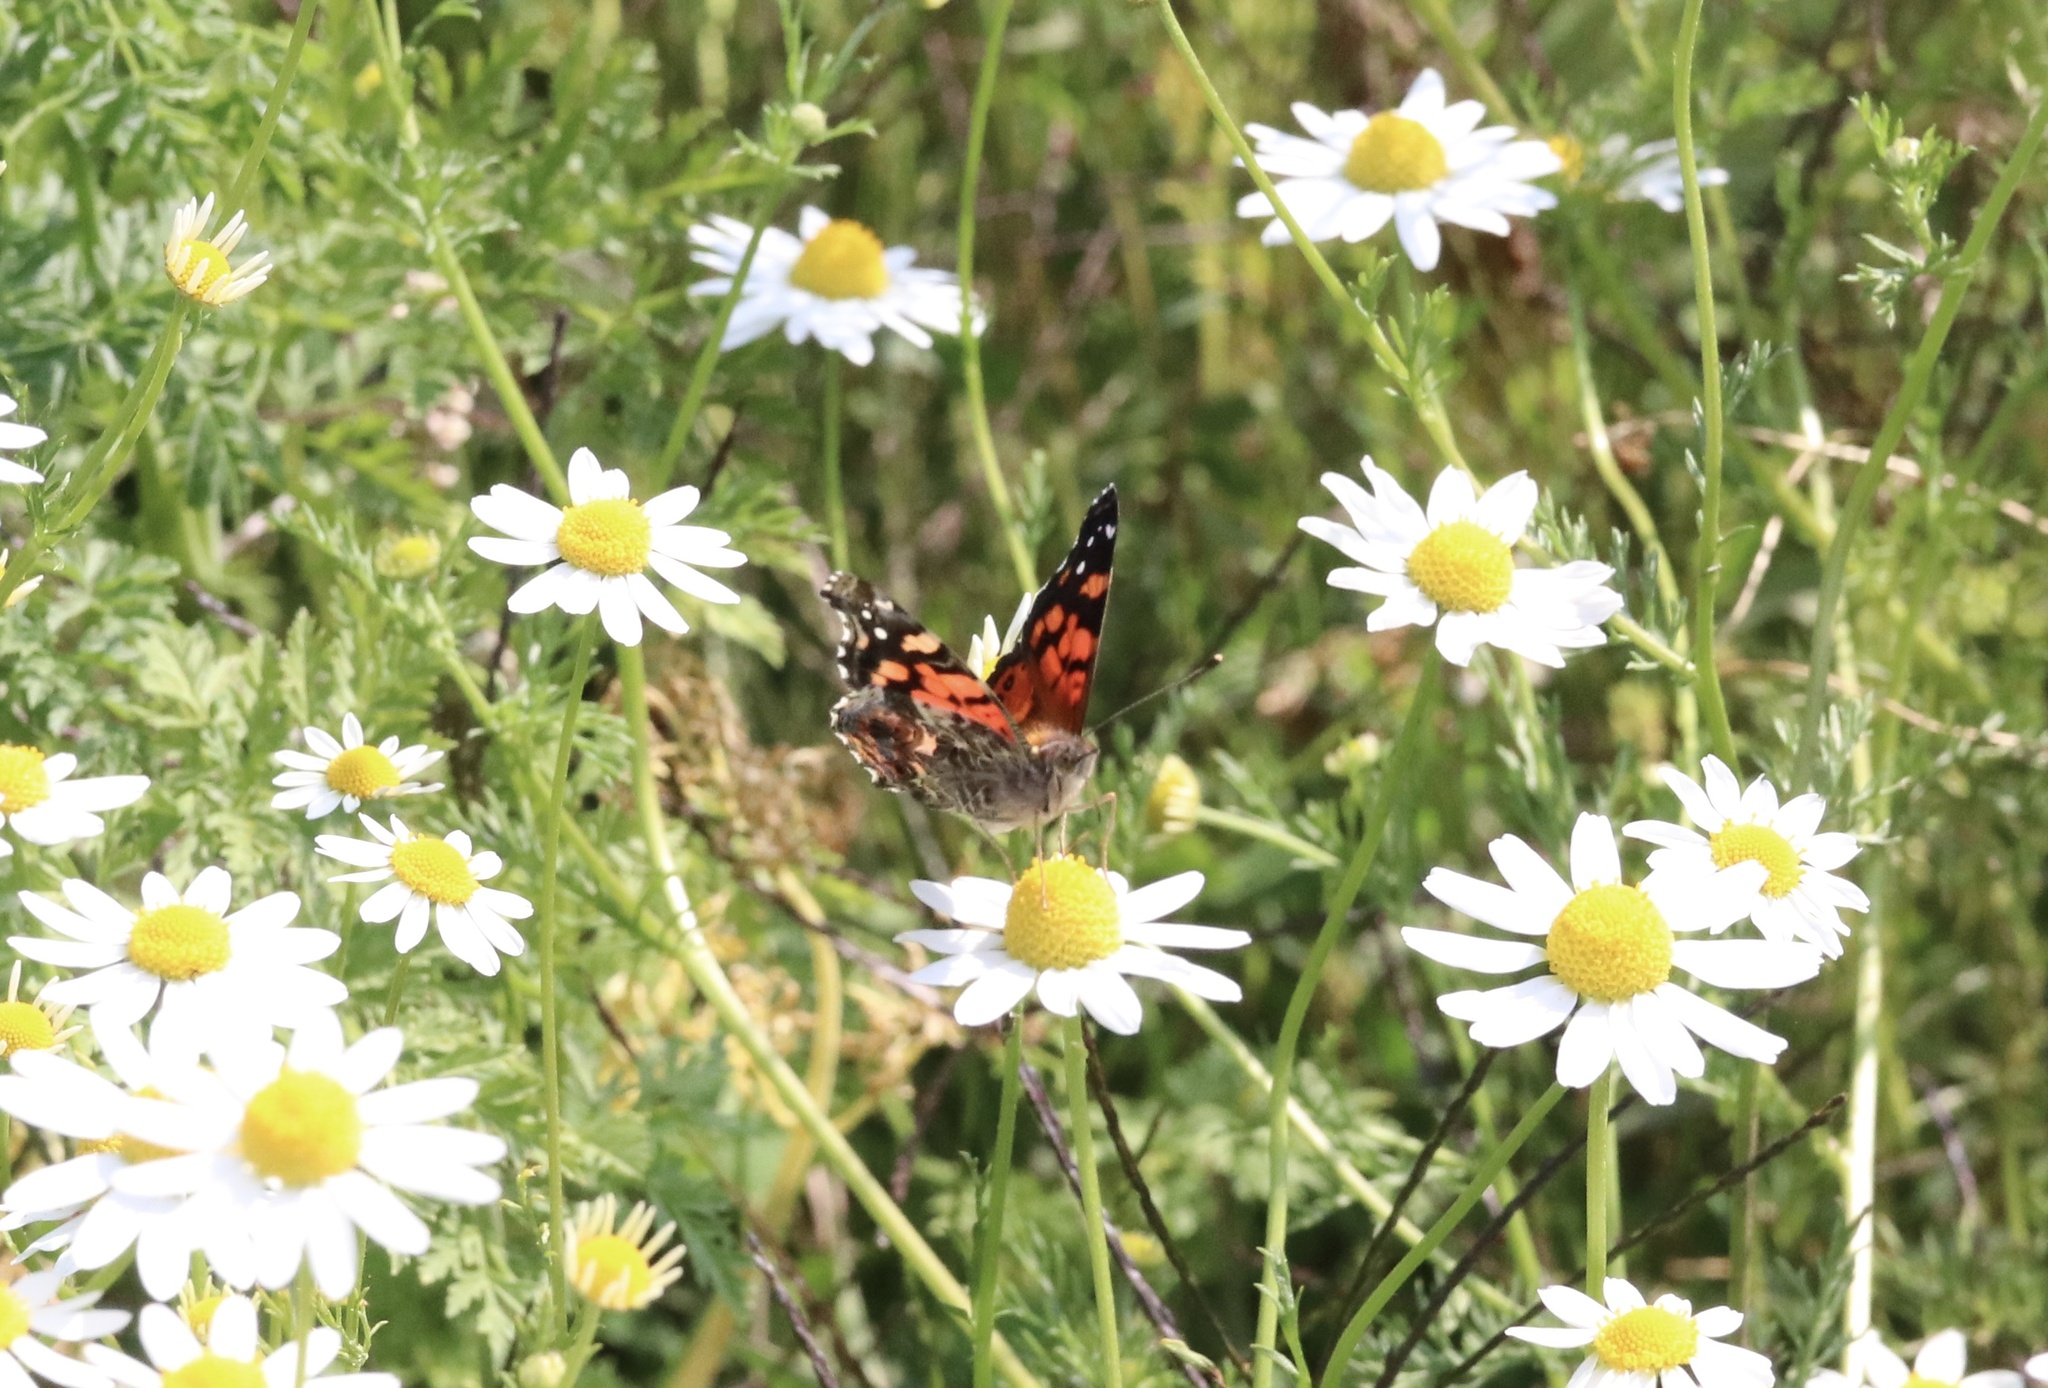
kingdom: Animalia
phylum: Arthropoda
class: Insecta
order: Lepidoptera
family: Nymphalidae
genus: Vanessa
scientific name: Vanessa carye
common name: Subtropical lady
